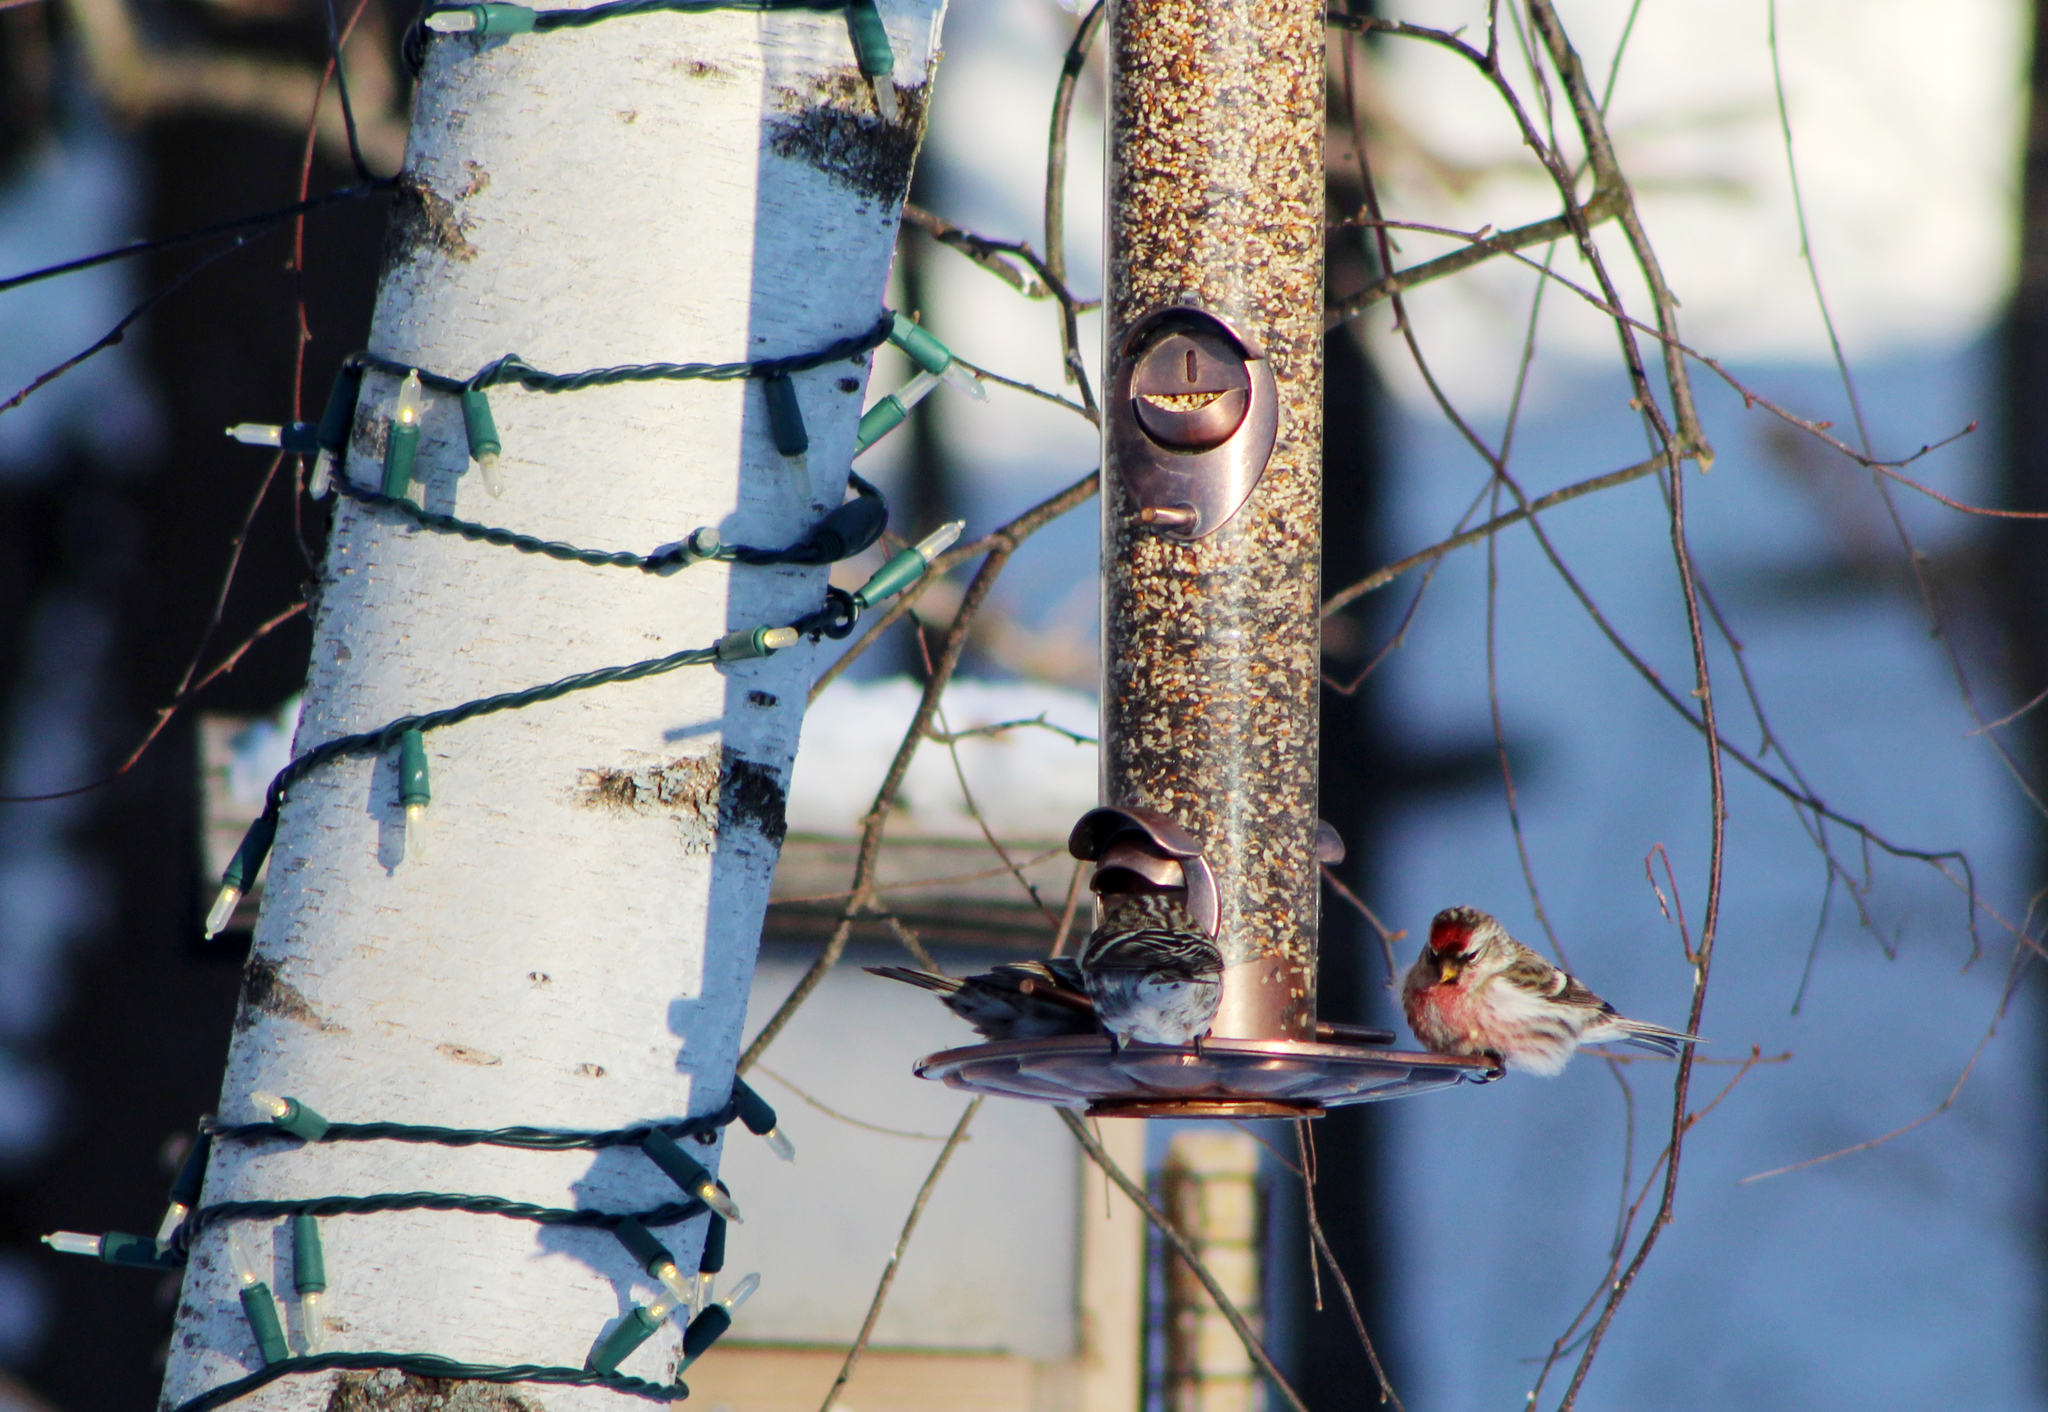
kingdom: Animalia
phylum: Chordata
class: Aves
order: Passeriformes
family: Fringillidae
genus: Acanthis
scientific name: Acanthis flammea
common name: Common redpoll
